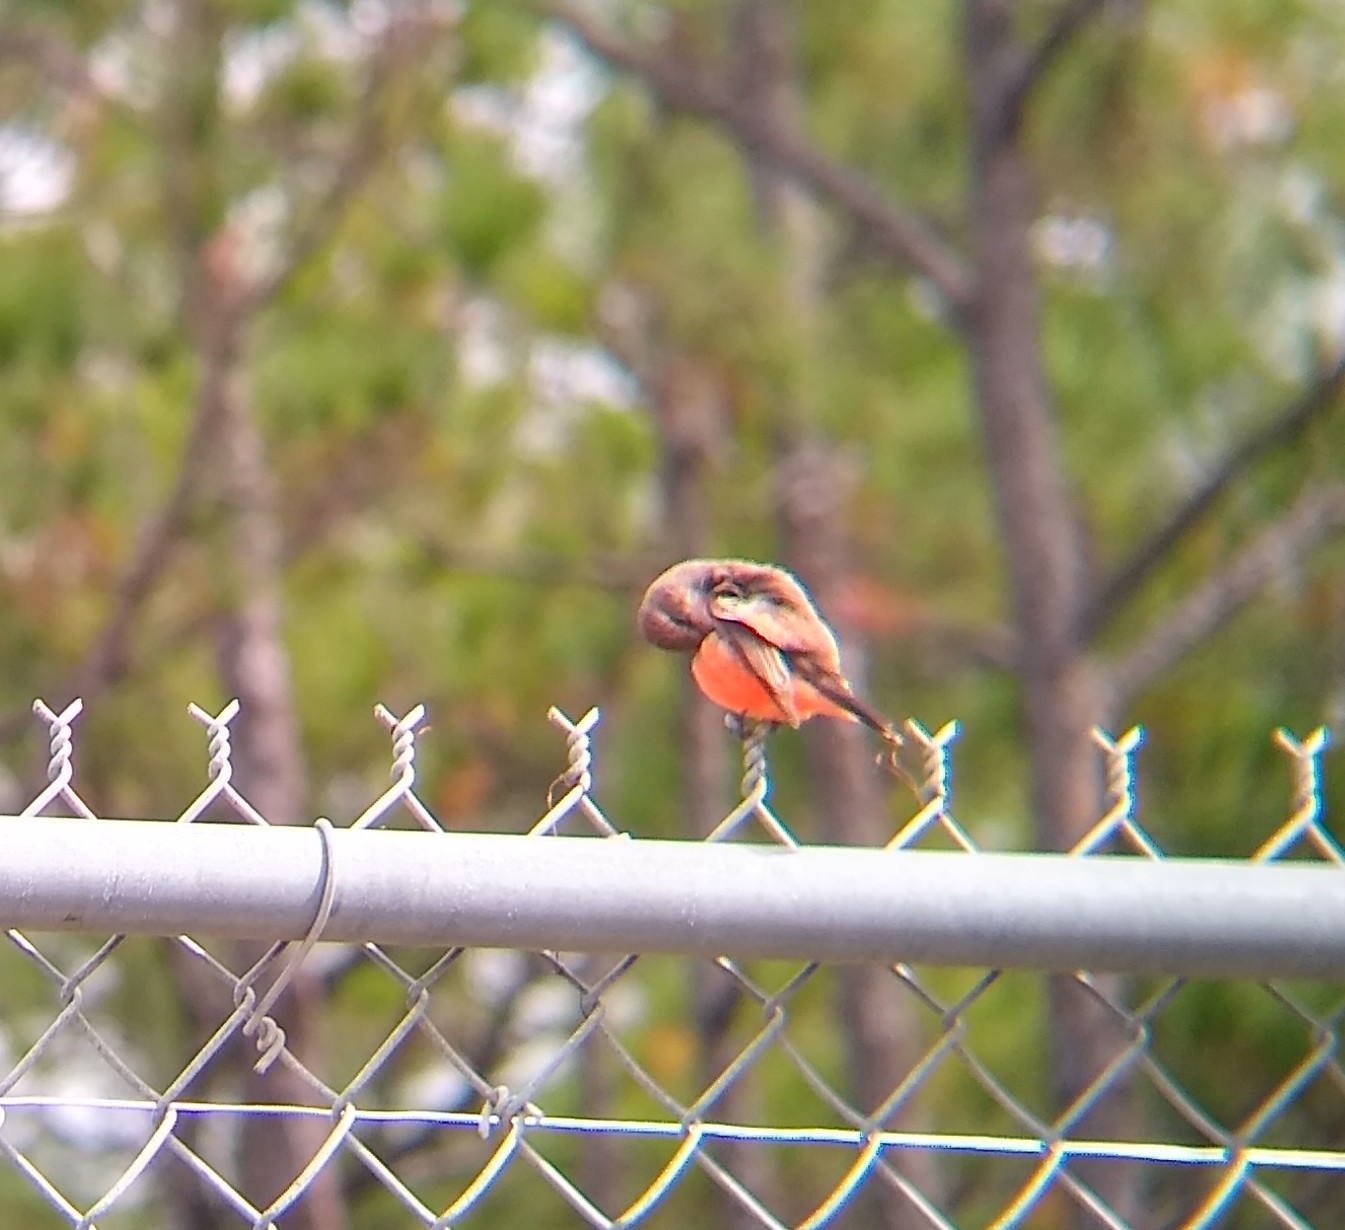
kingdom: Animalia
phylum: Chordata
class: Aves
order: Passeriformes
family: Tyrannidae
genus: Pyrocephalus
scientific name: Pyrocephalus rubinus
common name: Vermilion flycatcher
